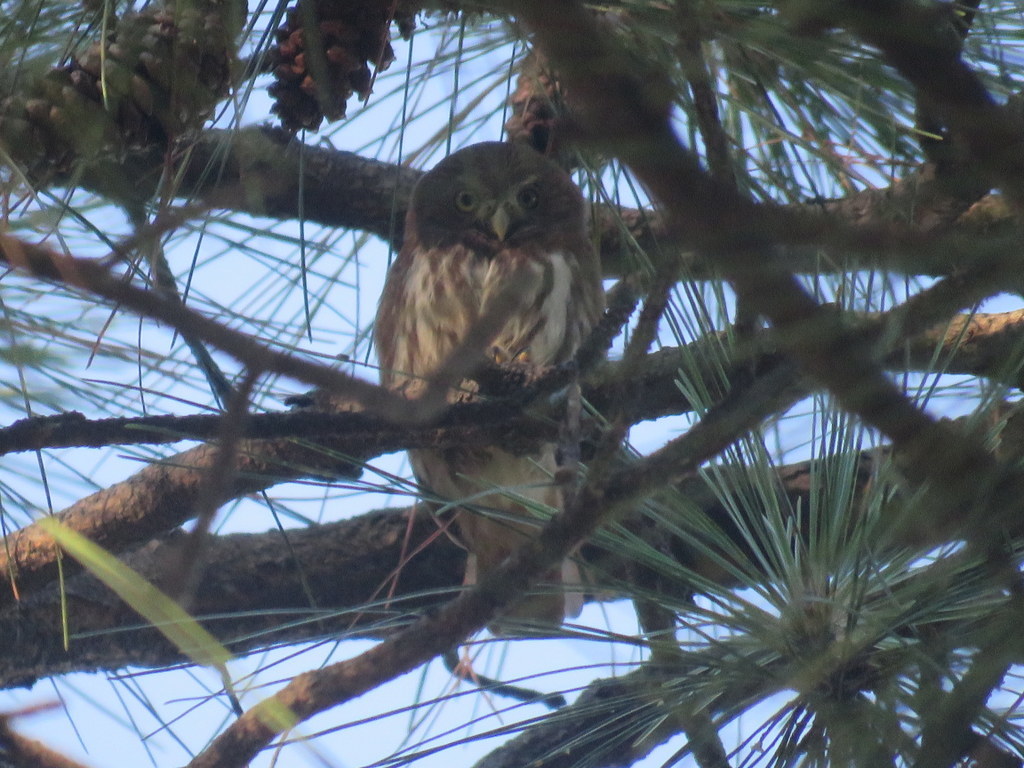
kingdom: Animalia
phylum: Chordata
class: Aves
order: Strigiformes
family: Strigidae
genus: Glaucidium
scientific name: Glaucidium brasilianum
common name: Ferruginous pygmy-owl
